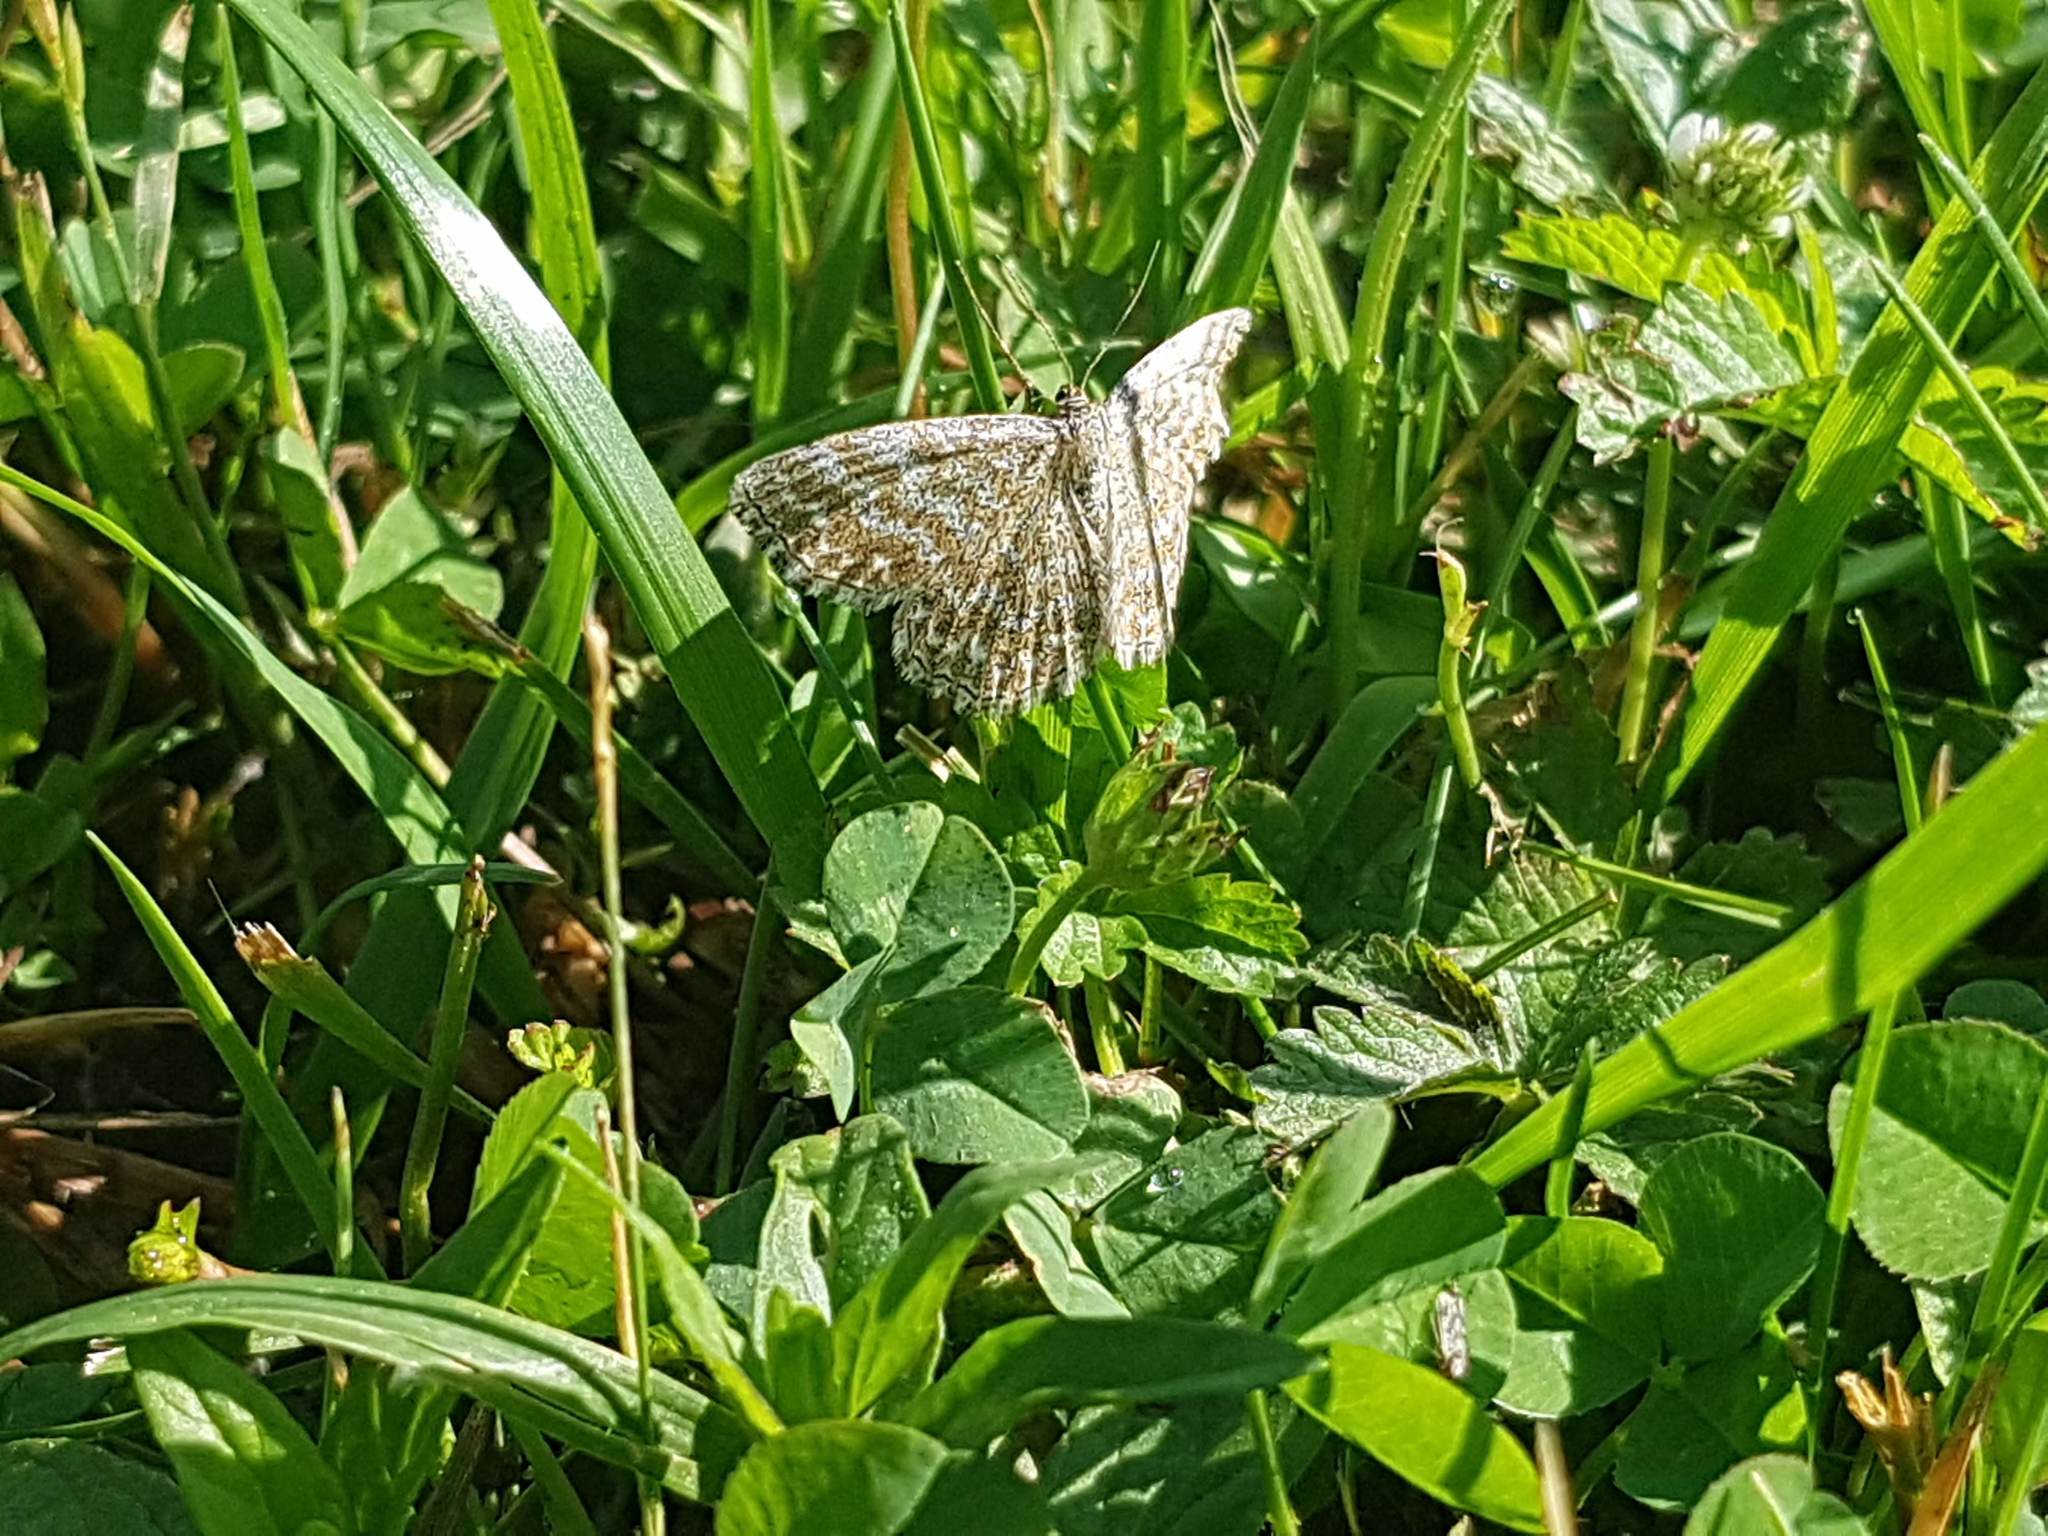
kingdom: Animalia
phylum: Arthropoda
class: Insecta
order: Lepidoptera
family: Geometridae
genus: Scopula
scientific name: Scopula immorata
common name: Lewes wave
